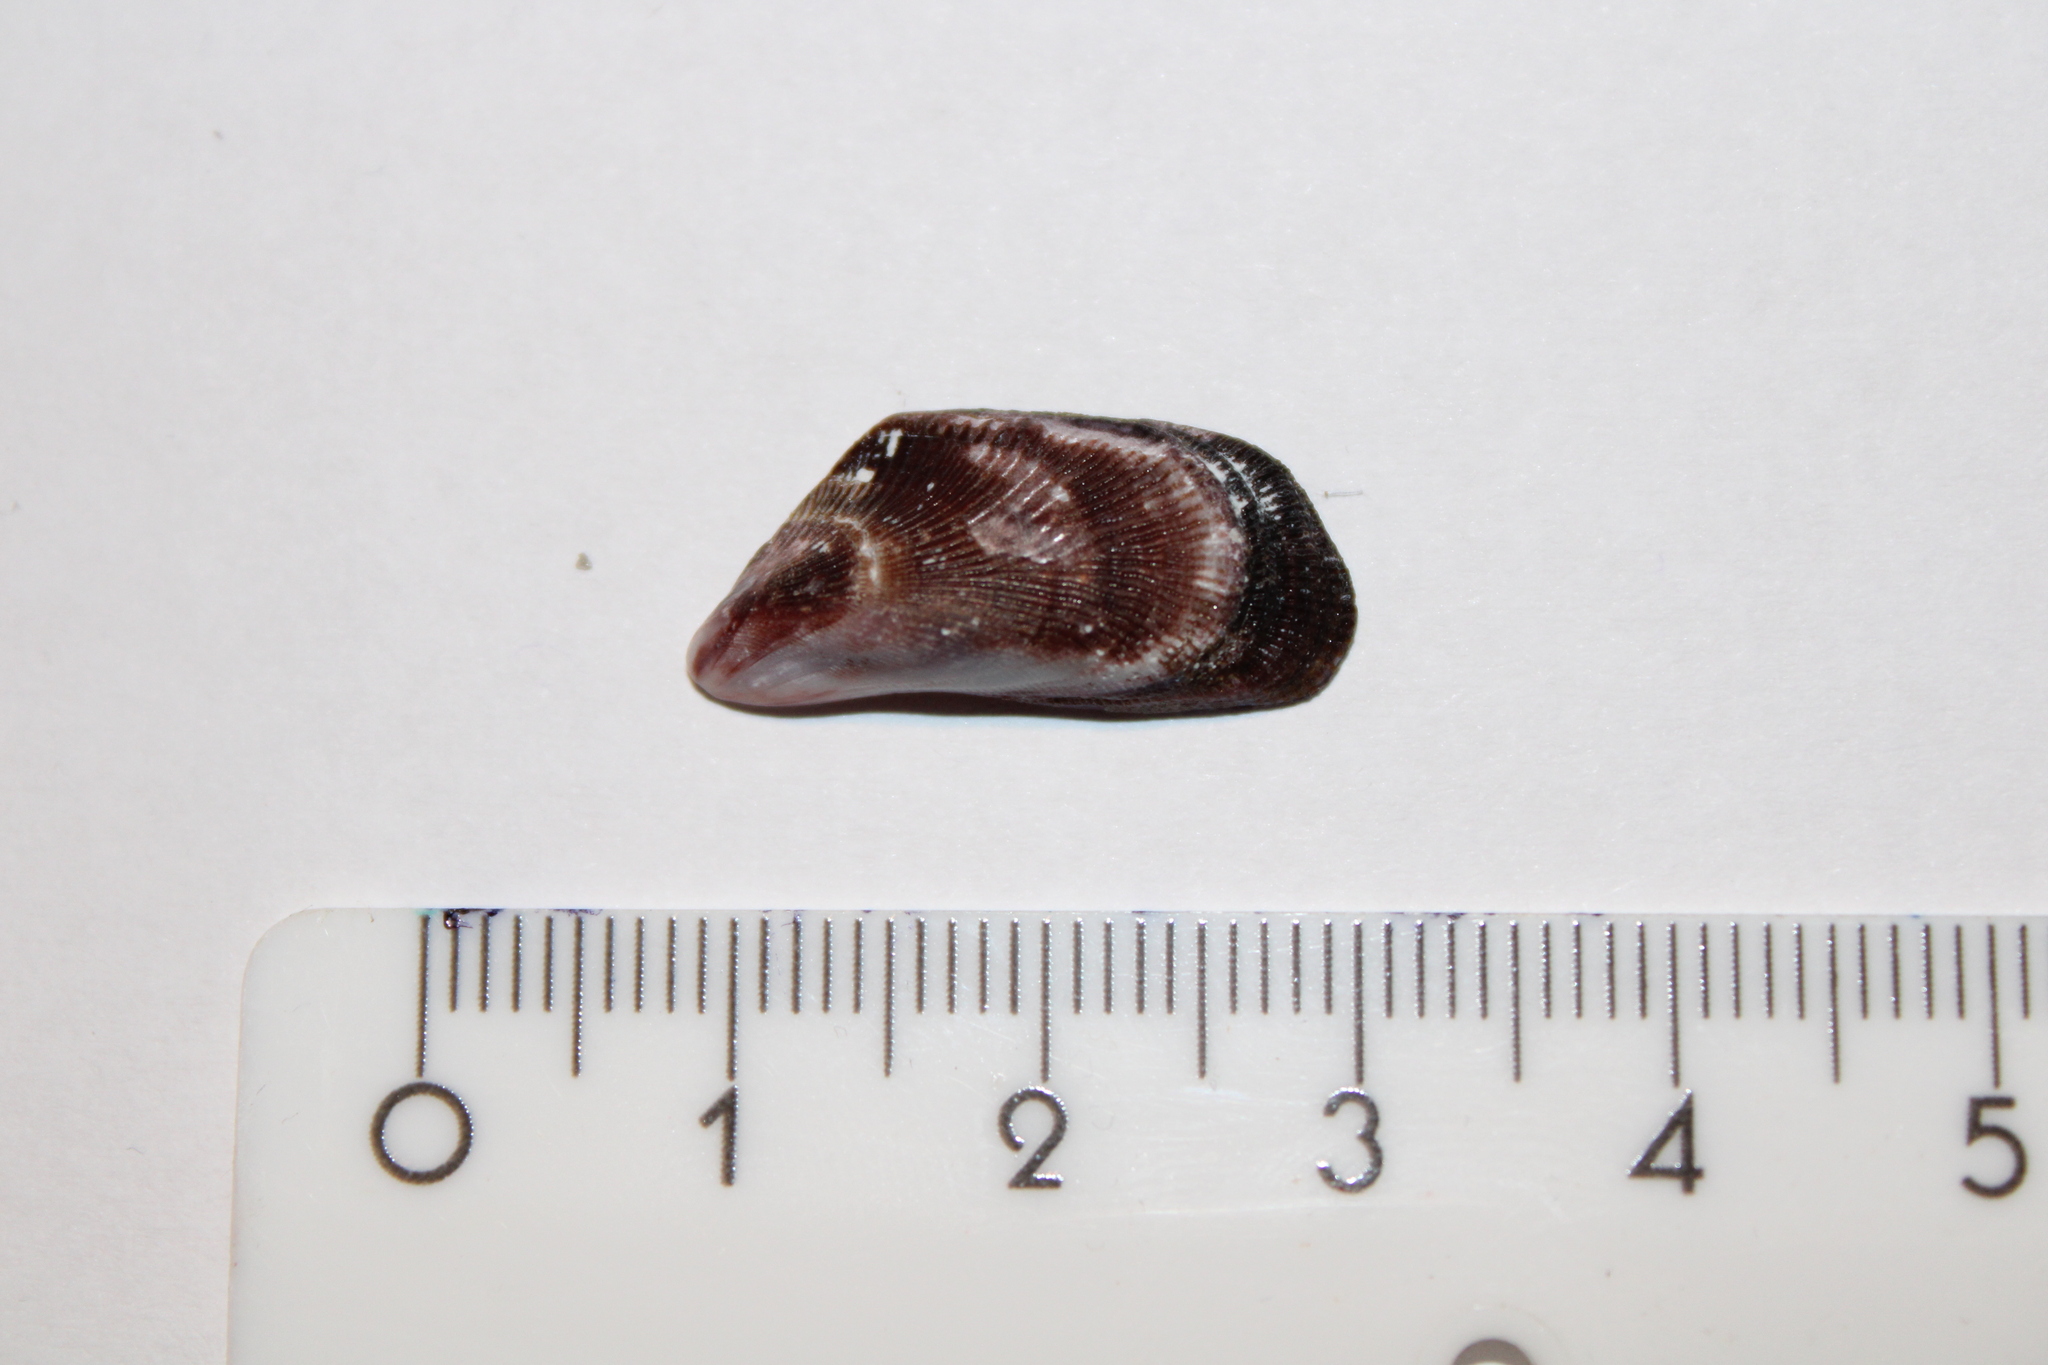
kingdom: Animalia
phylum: Mollusca
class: Bivalvia
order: Mytilida
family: Mytilidae
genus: Brachidontes
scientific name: Brachidontes pharaonis
